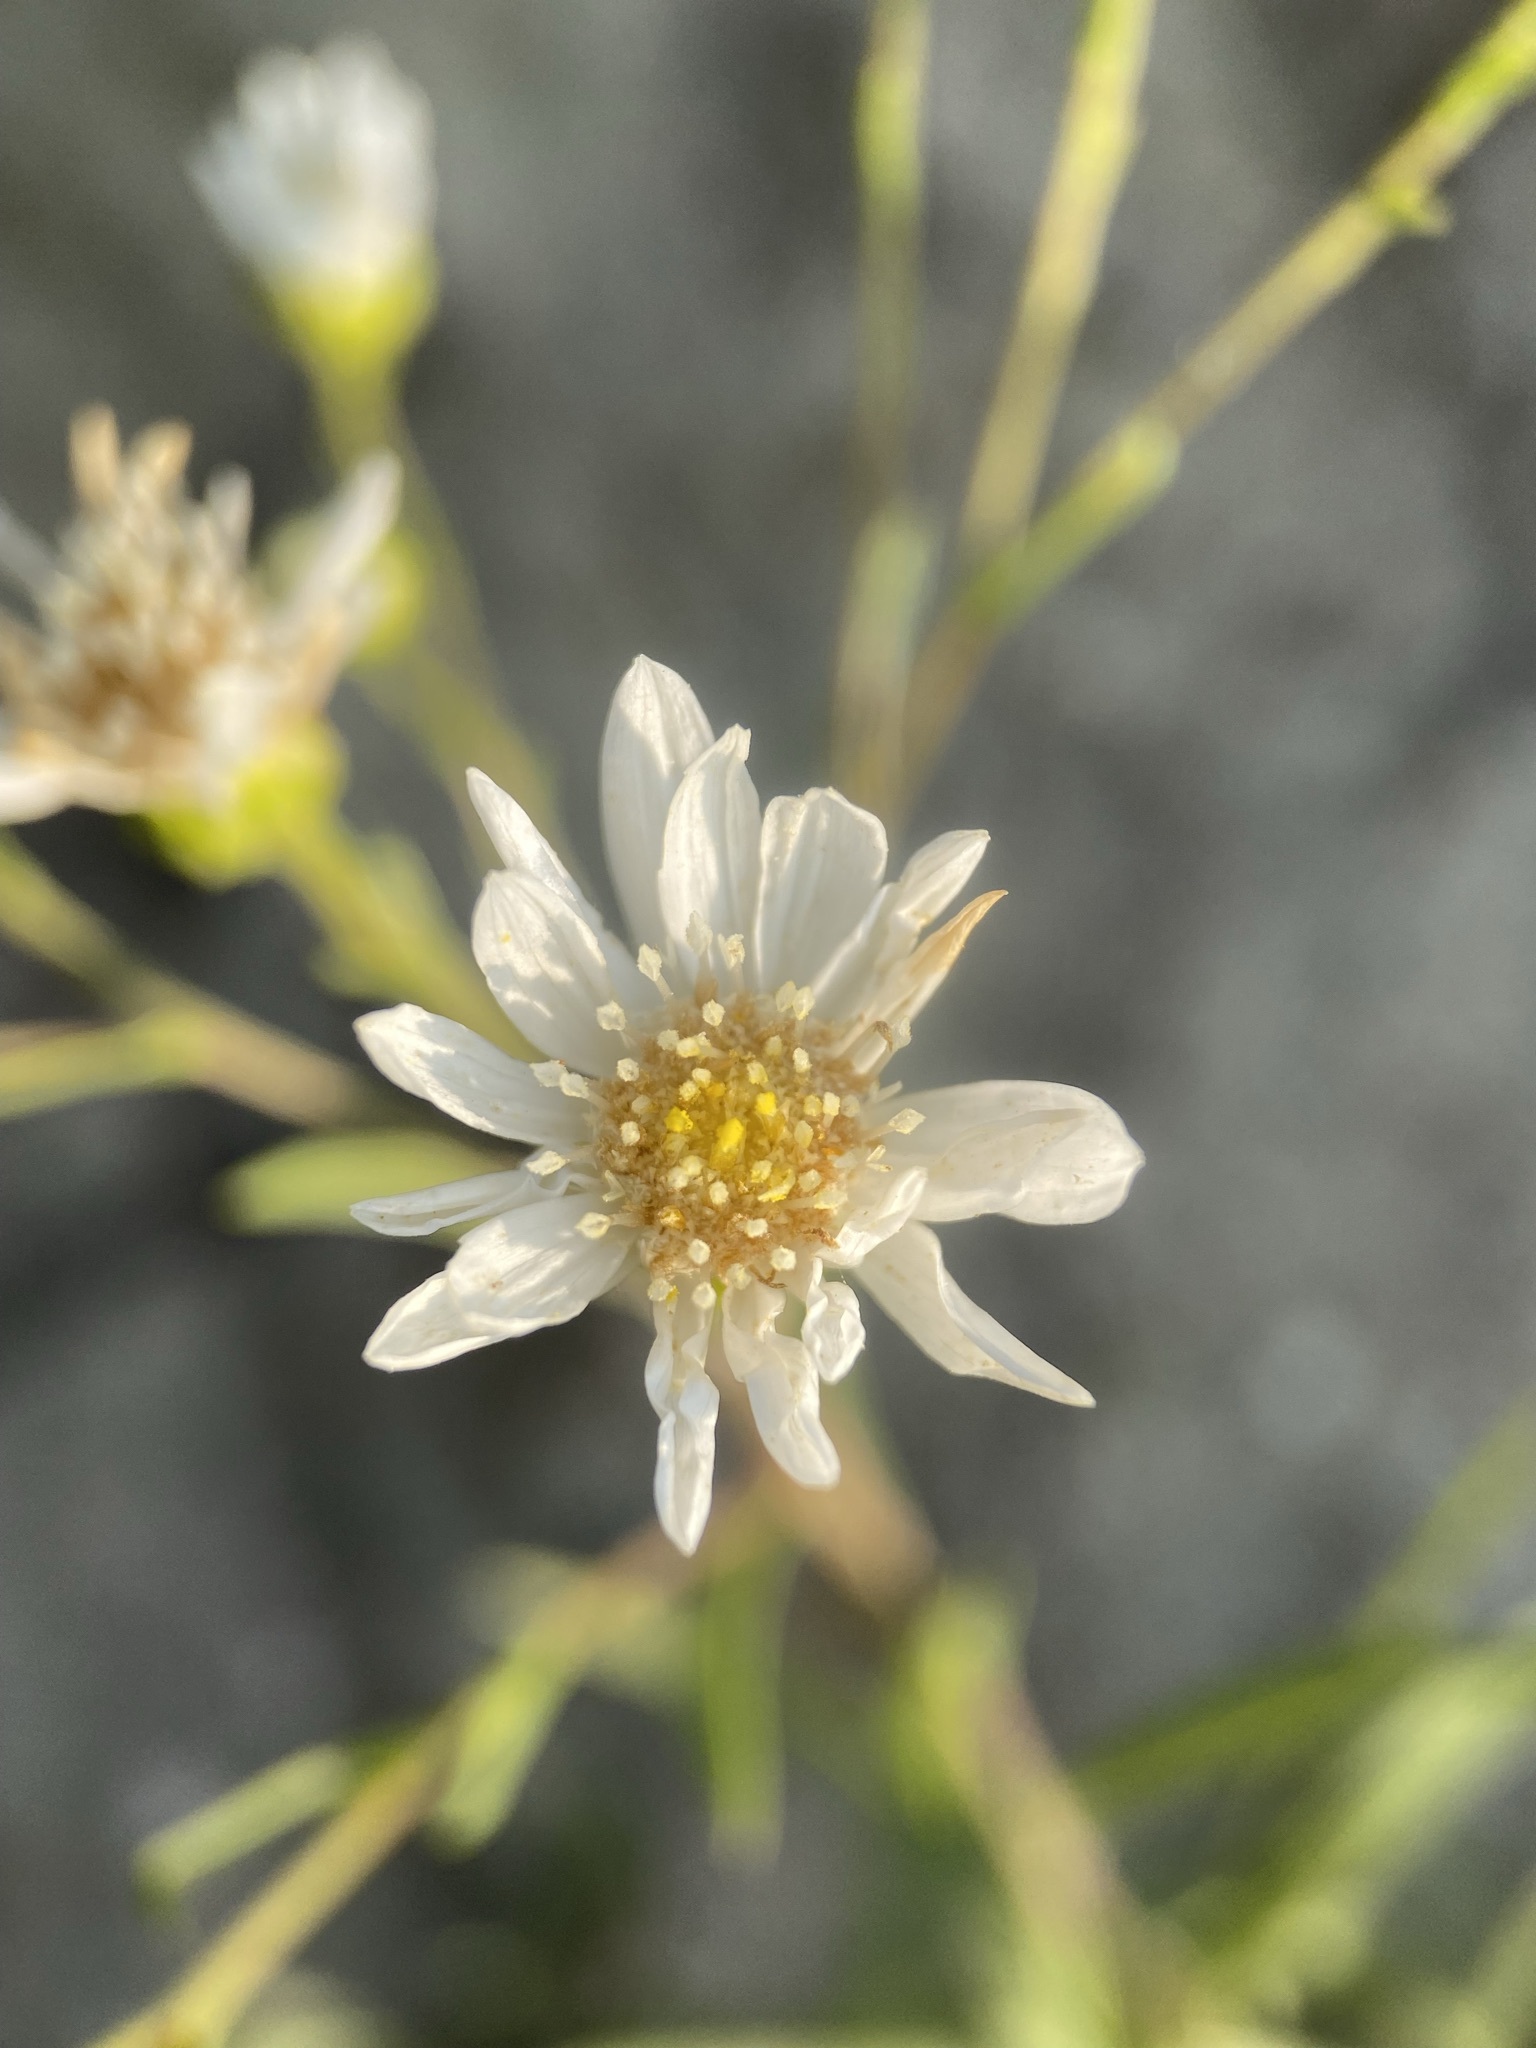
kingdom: Plantae
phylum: Tracheophyta
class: Magnoliopsida
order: Asterales
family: Asteraceae
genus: Solidago
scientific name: Solidago ptarmicoides
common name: White flat-top goldenrod
